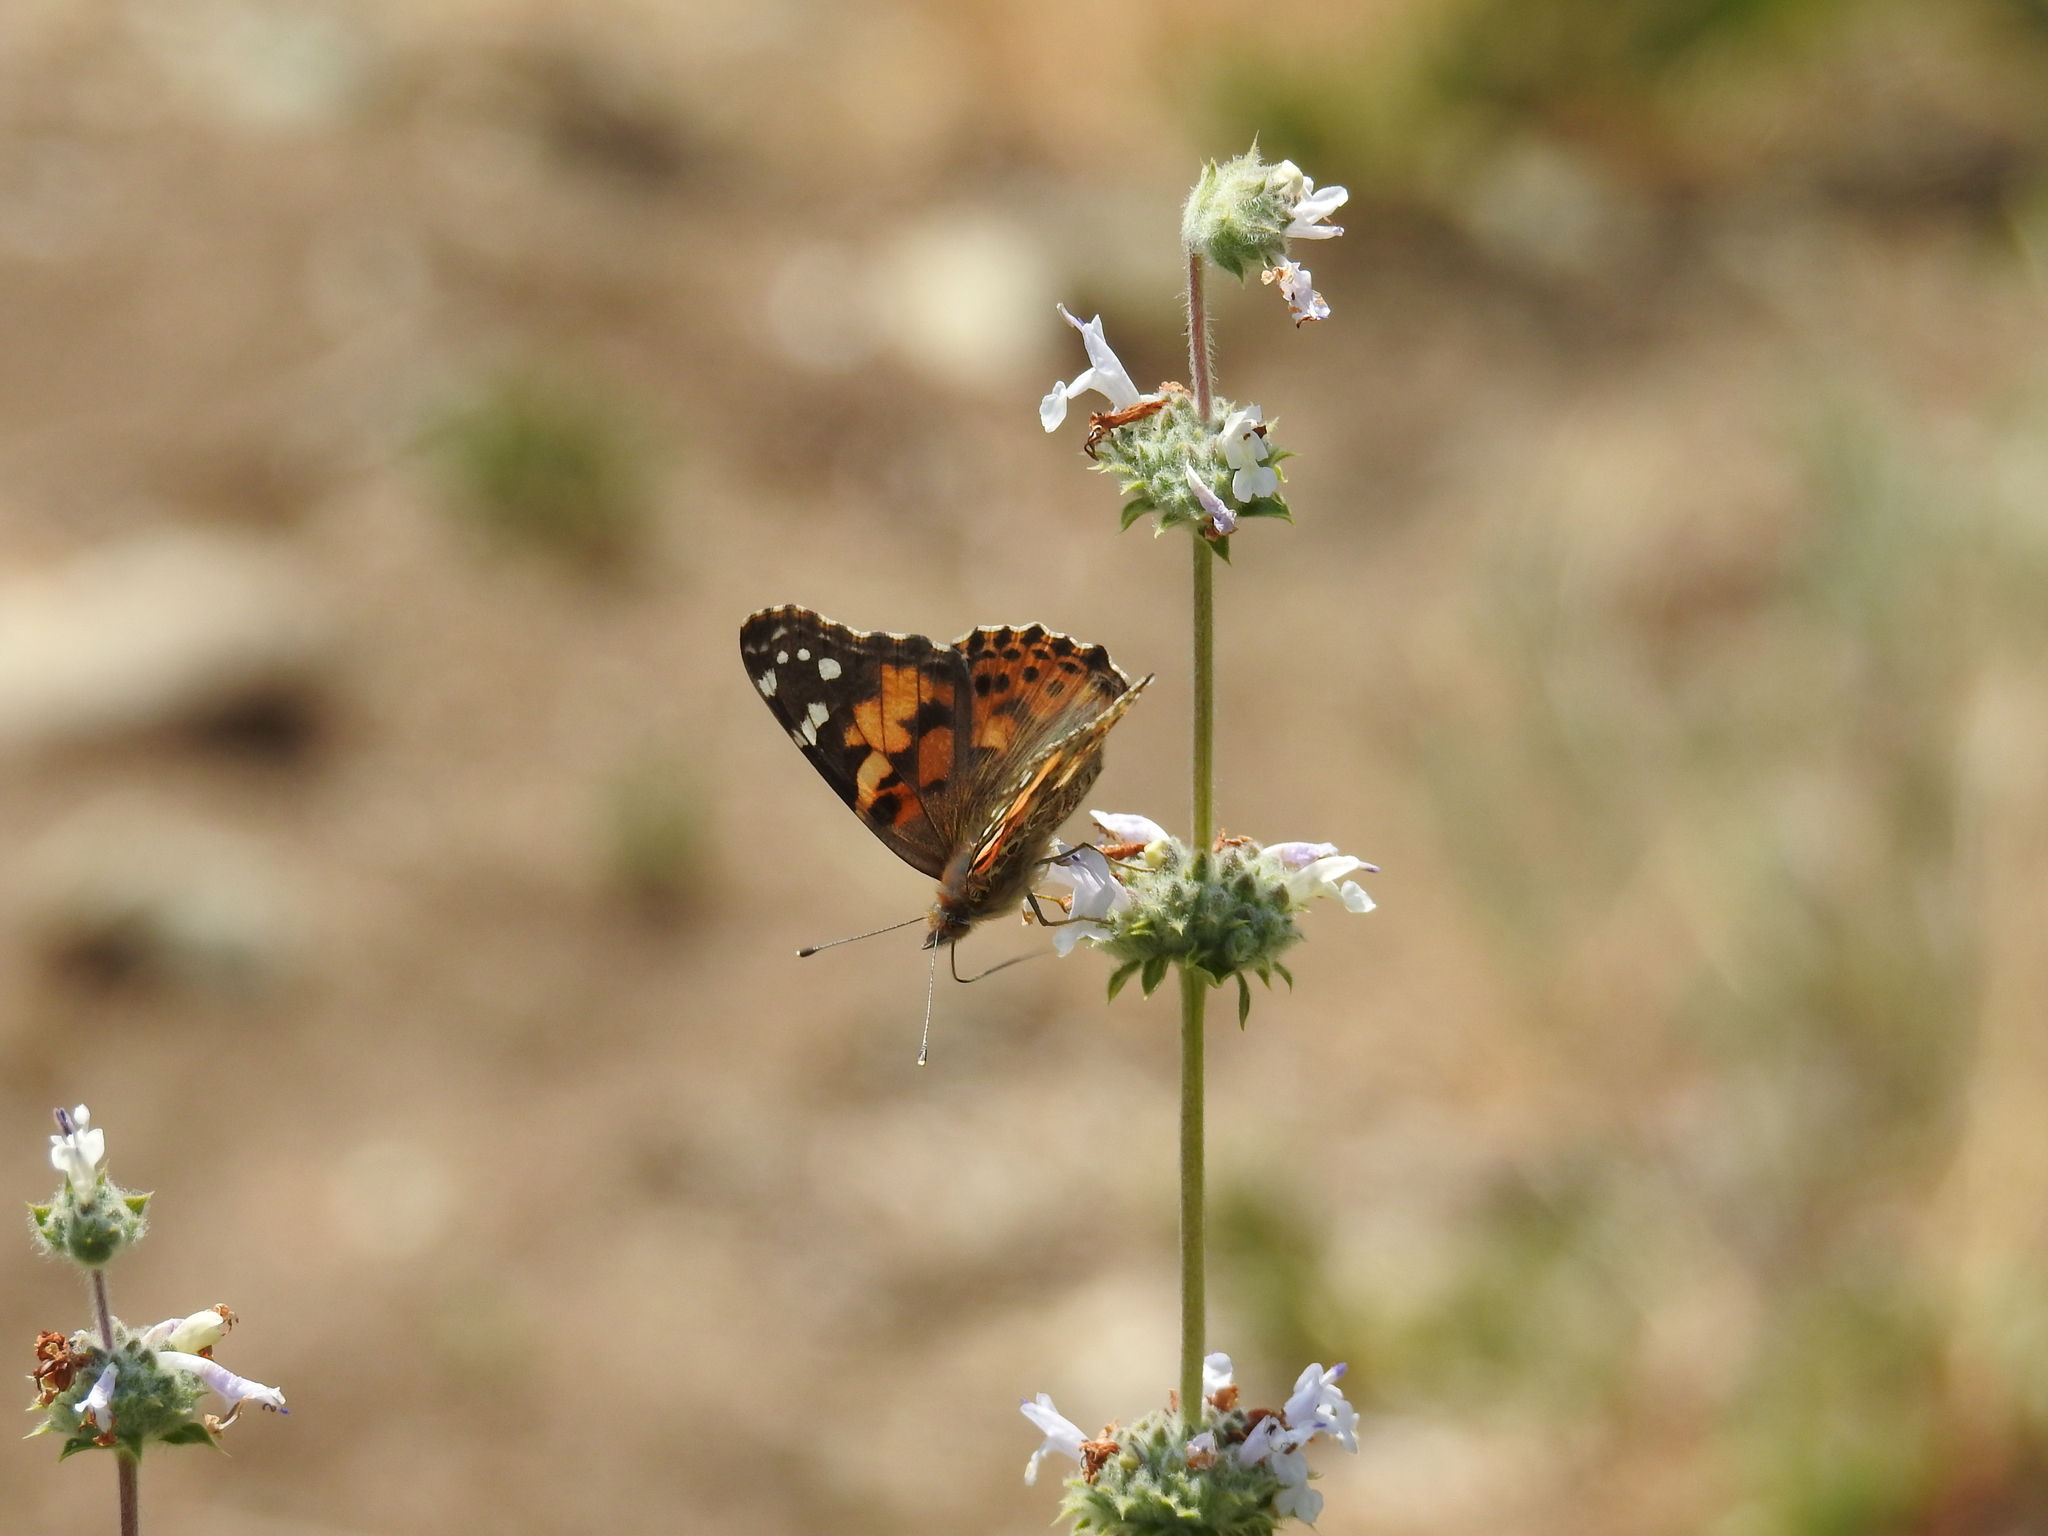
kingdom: Animalia
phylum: Arthropoda
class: Insecta
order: Lepidoptera
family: Nymphalidae
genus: Vanessa
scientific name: Vanessa cardui
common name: Painted lady
